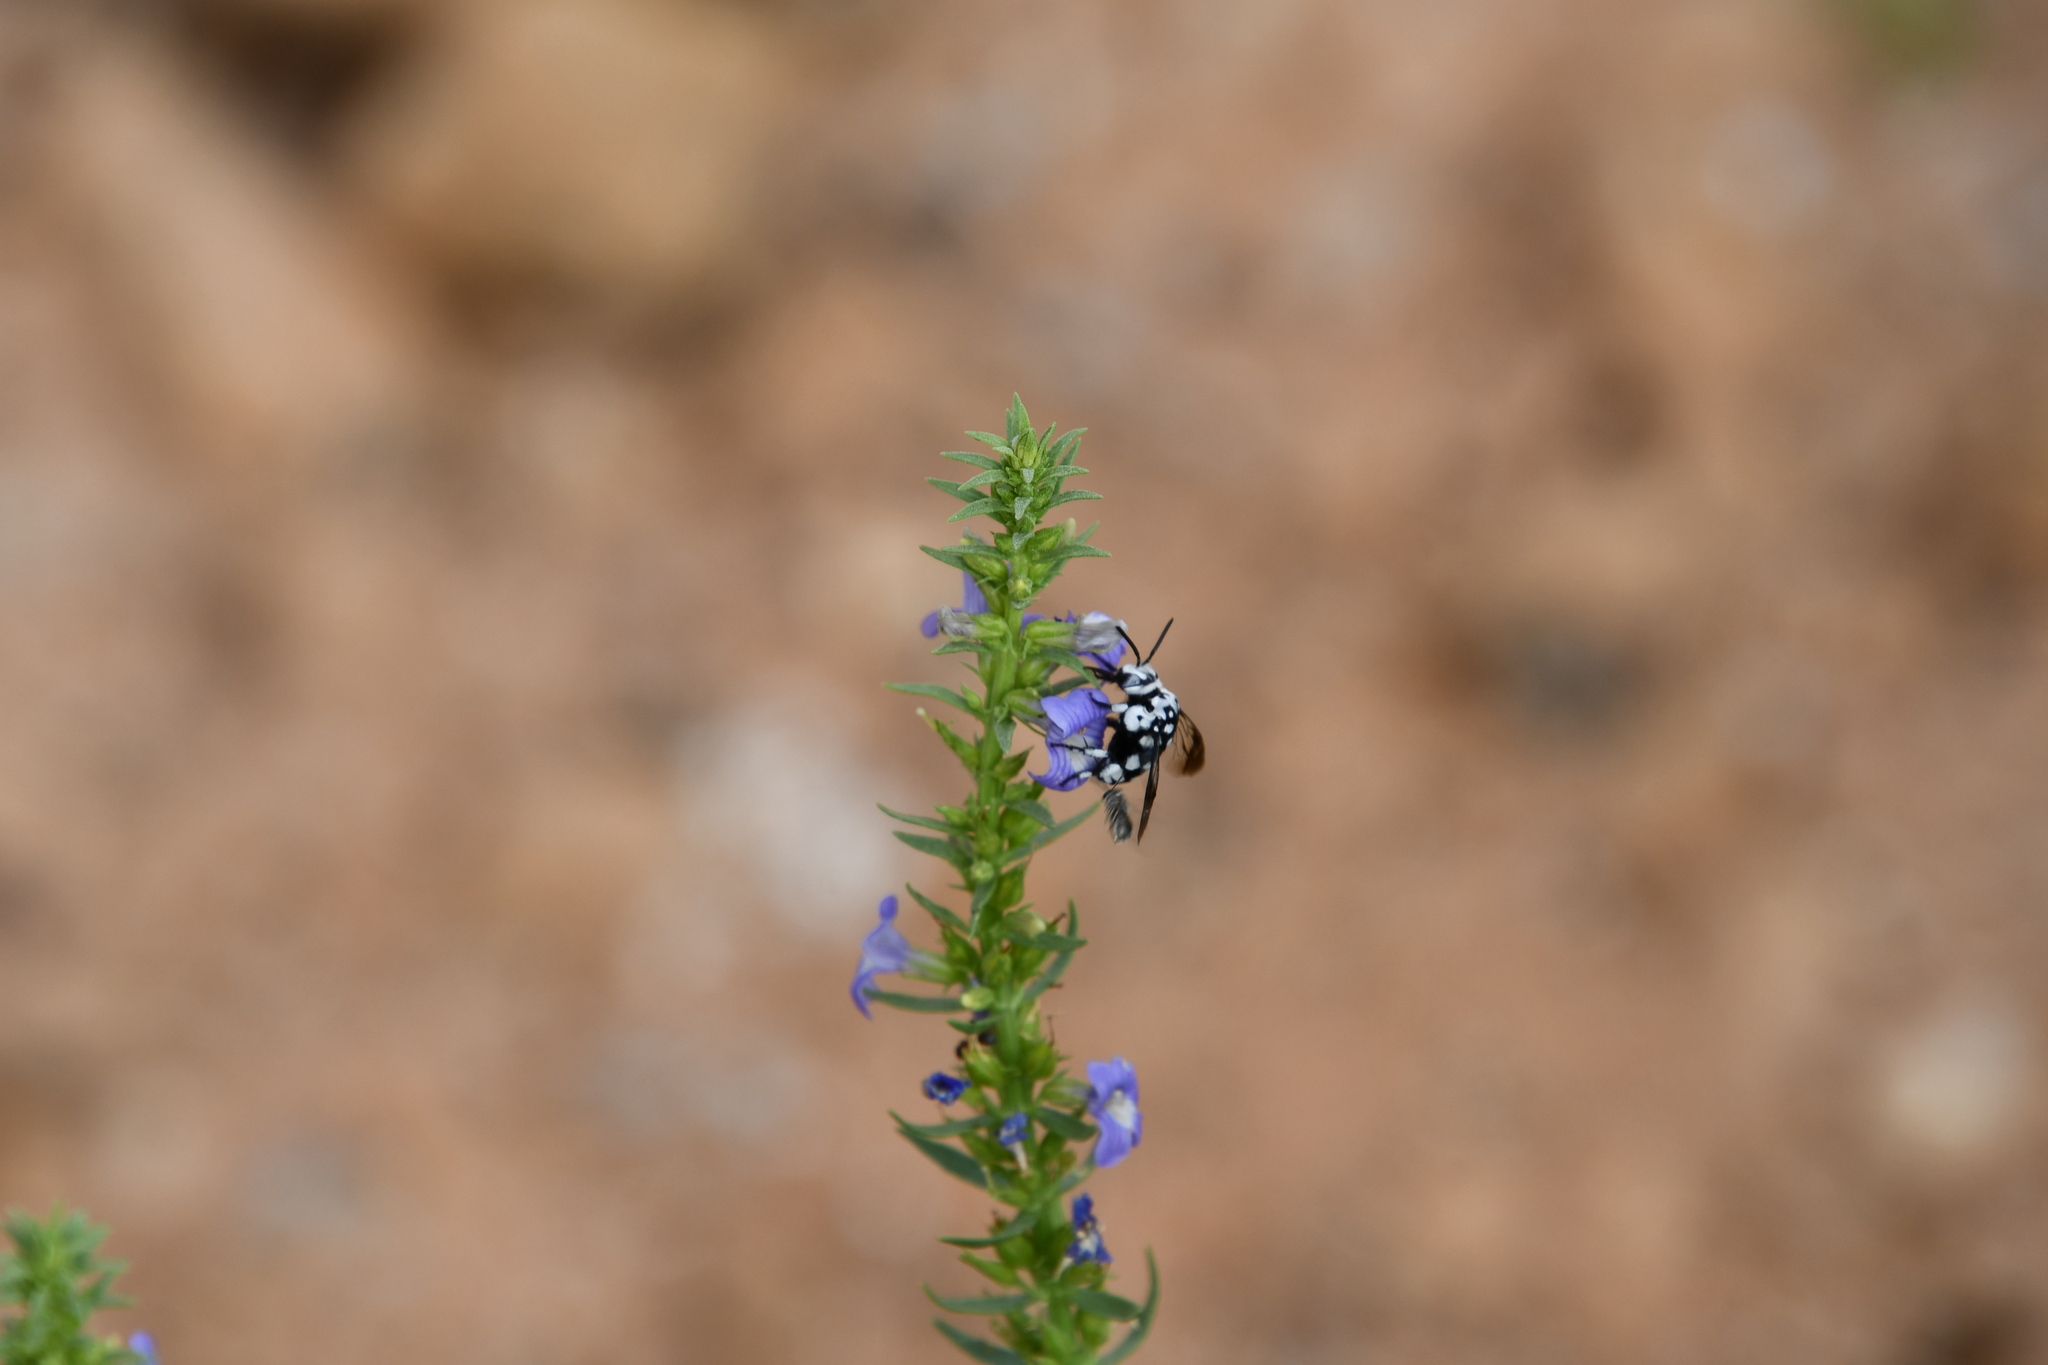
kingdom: Animalia
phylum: Arthropoda
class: Insecta
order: Hymenoptera
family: Apidae
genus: Thyreus
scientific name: Thyreus waroonensis
